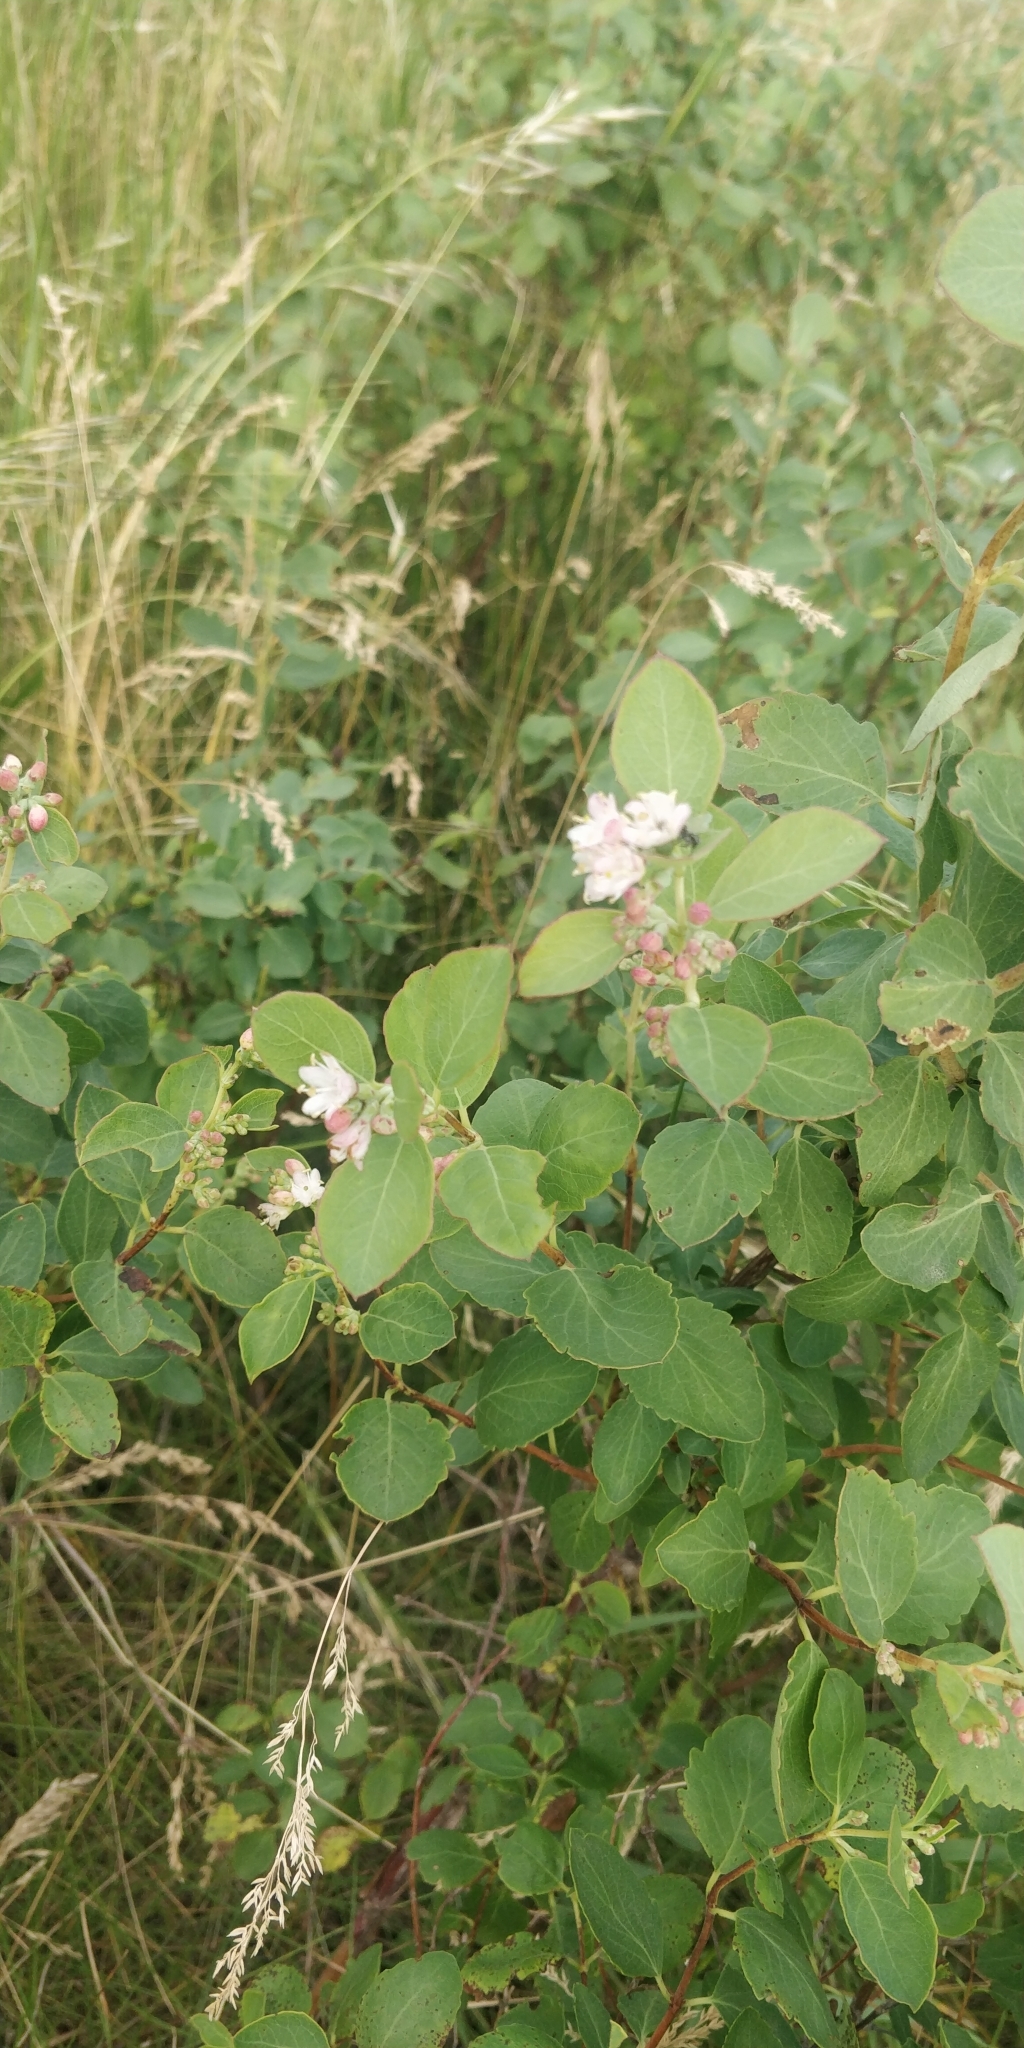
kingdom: Plantae
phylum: Tracheophyta
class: Magnoliopsida
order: Dipsacales
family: Caprifoliaceae
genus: Symphoricarpos
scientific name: Symphoricarpos occidentalis
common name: Wolfberry
